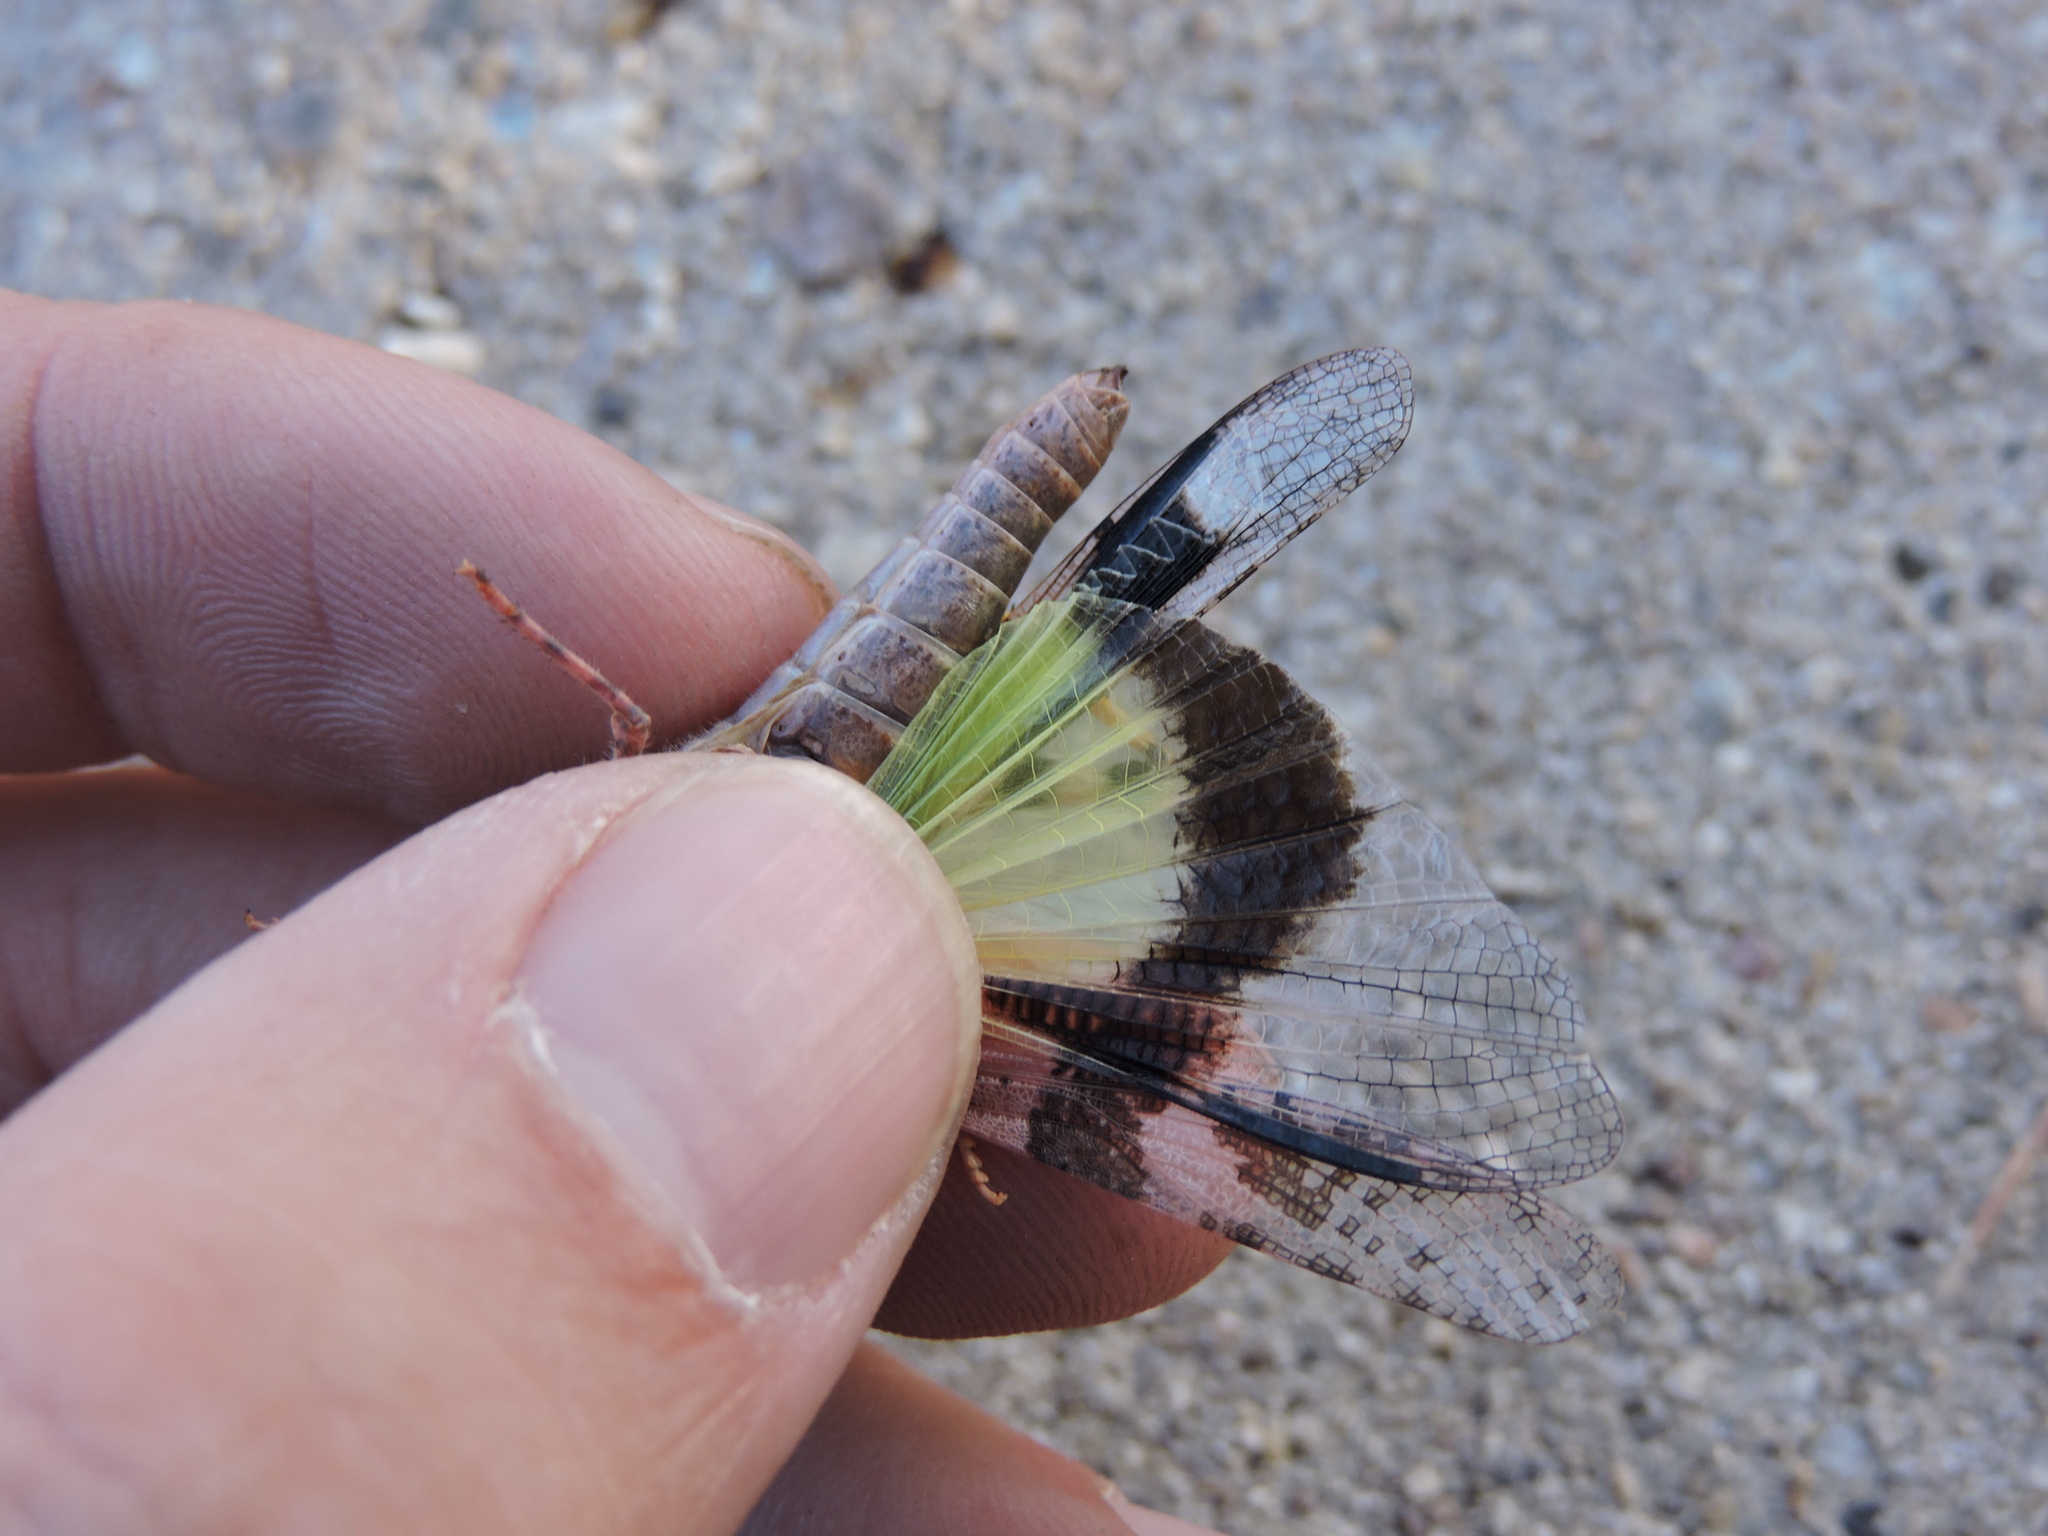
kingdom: Animalia
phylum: Arthropoda
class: Insecta
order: Orthoptera
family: Acrididae
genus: Trimerotropis
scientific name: Trimerotropis pallidipennis
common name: Pallid-winged grasshopper
